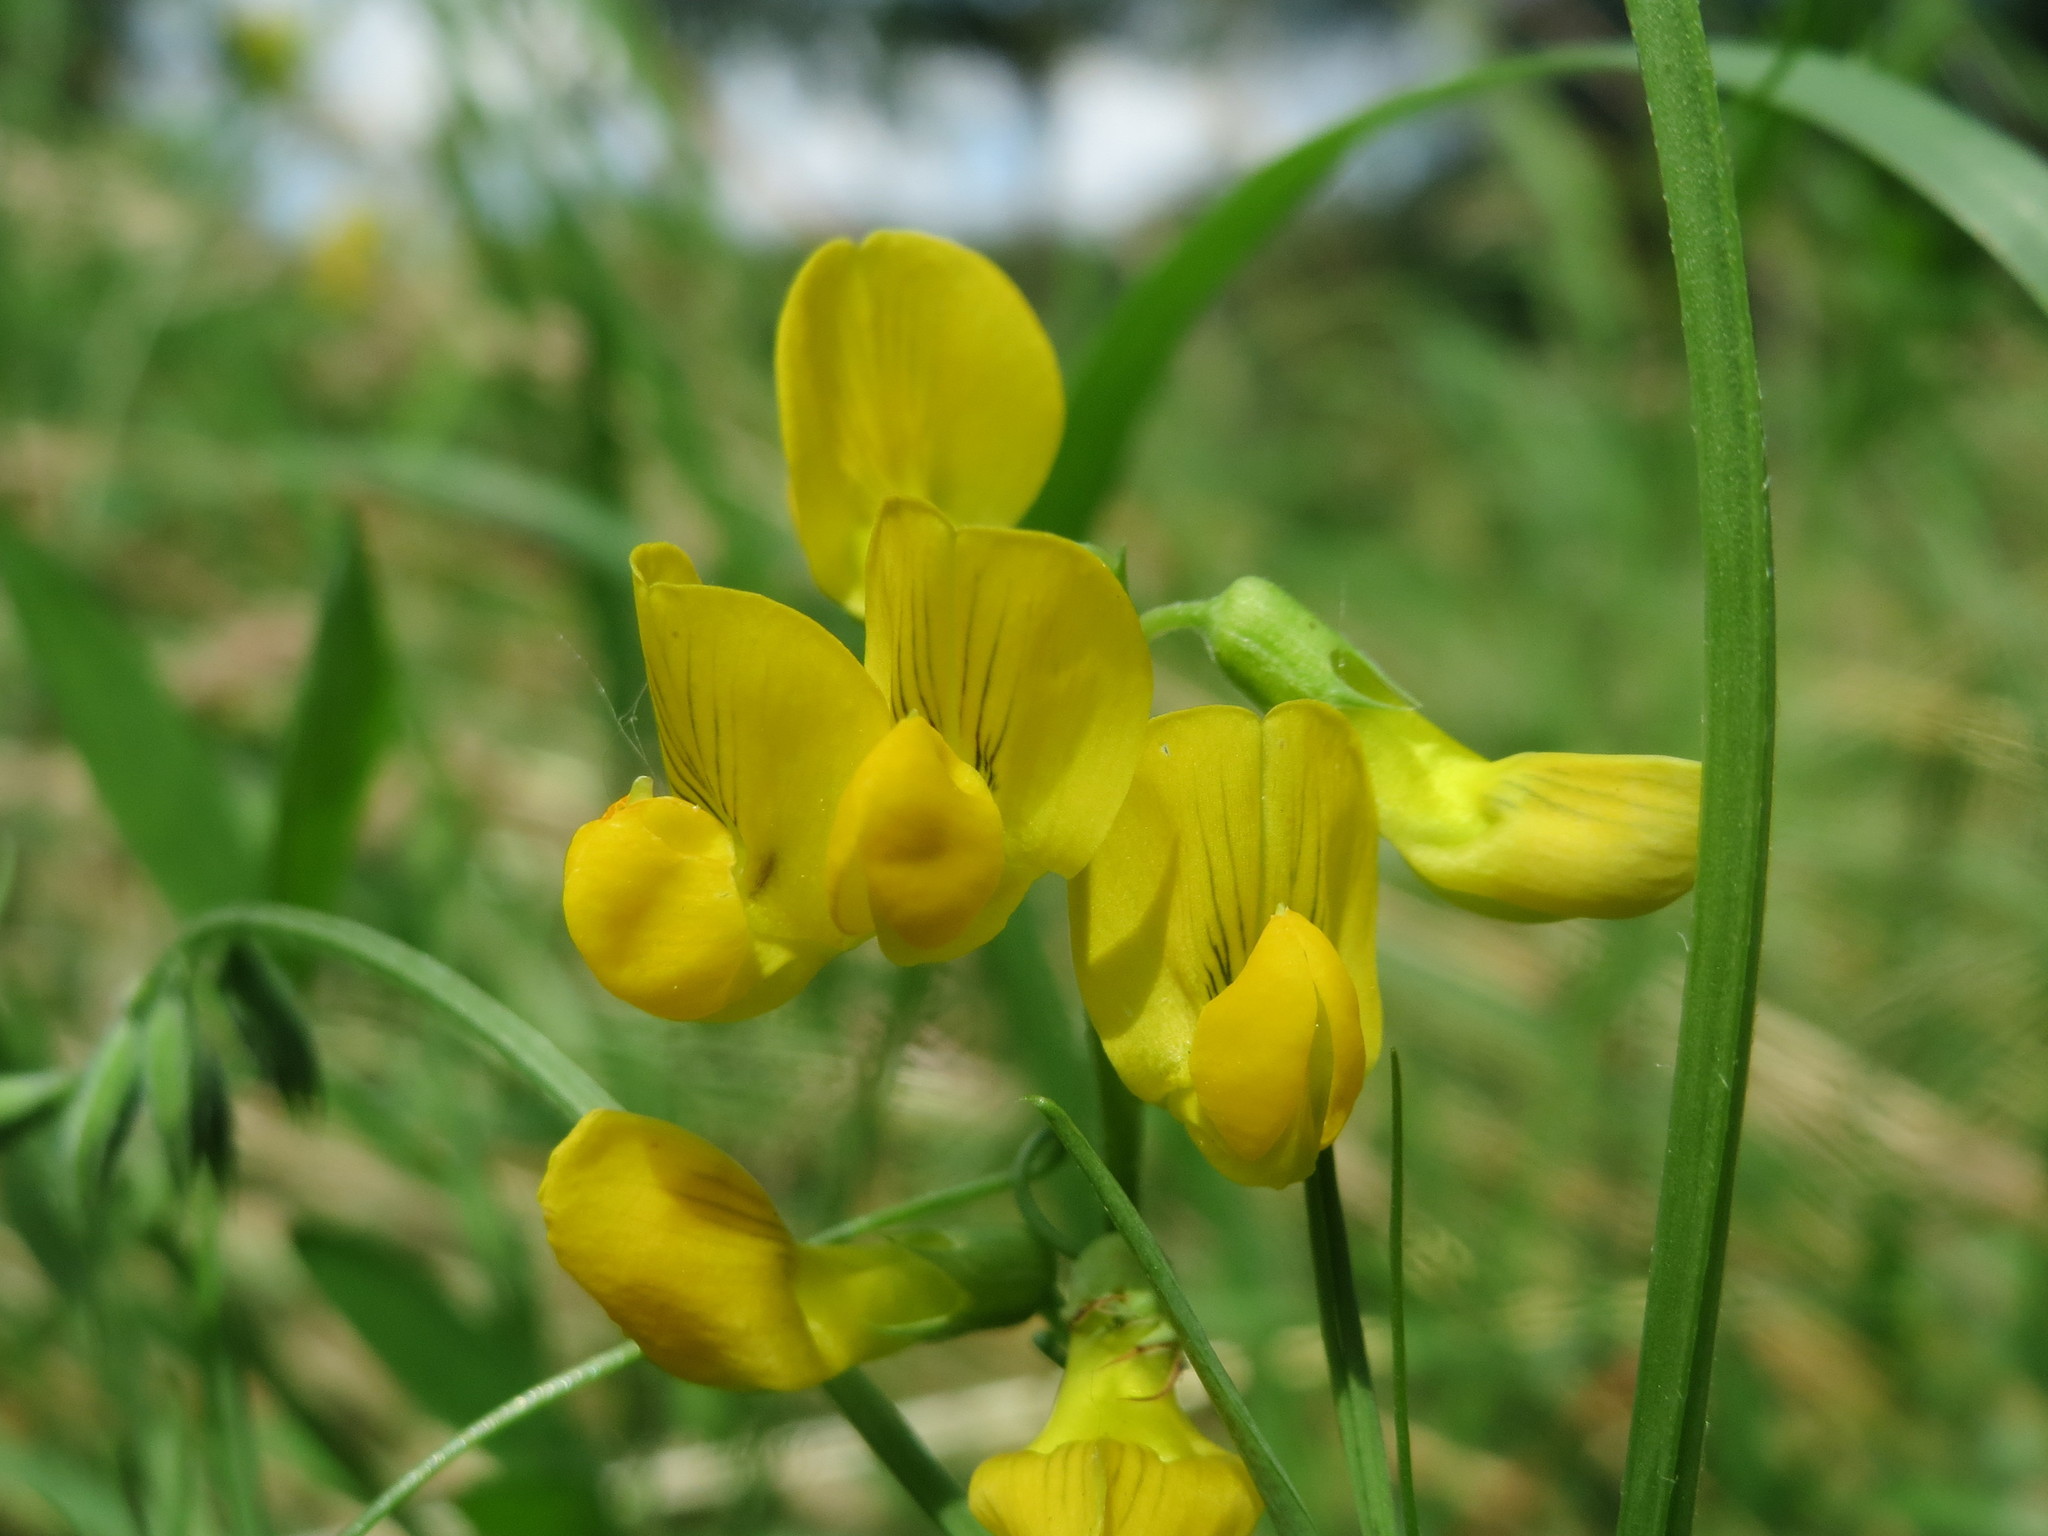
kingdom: Plantae
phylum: Tracheophyta
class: Magnoliopsida
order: Fabales
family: Fabaceae
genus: Lathyrus
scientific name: Lathyrus pratensis
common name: Meadow vetchling
